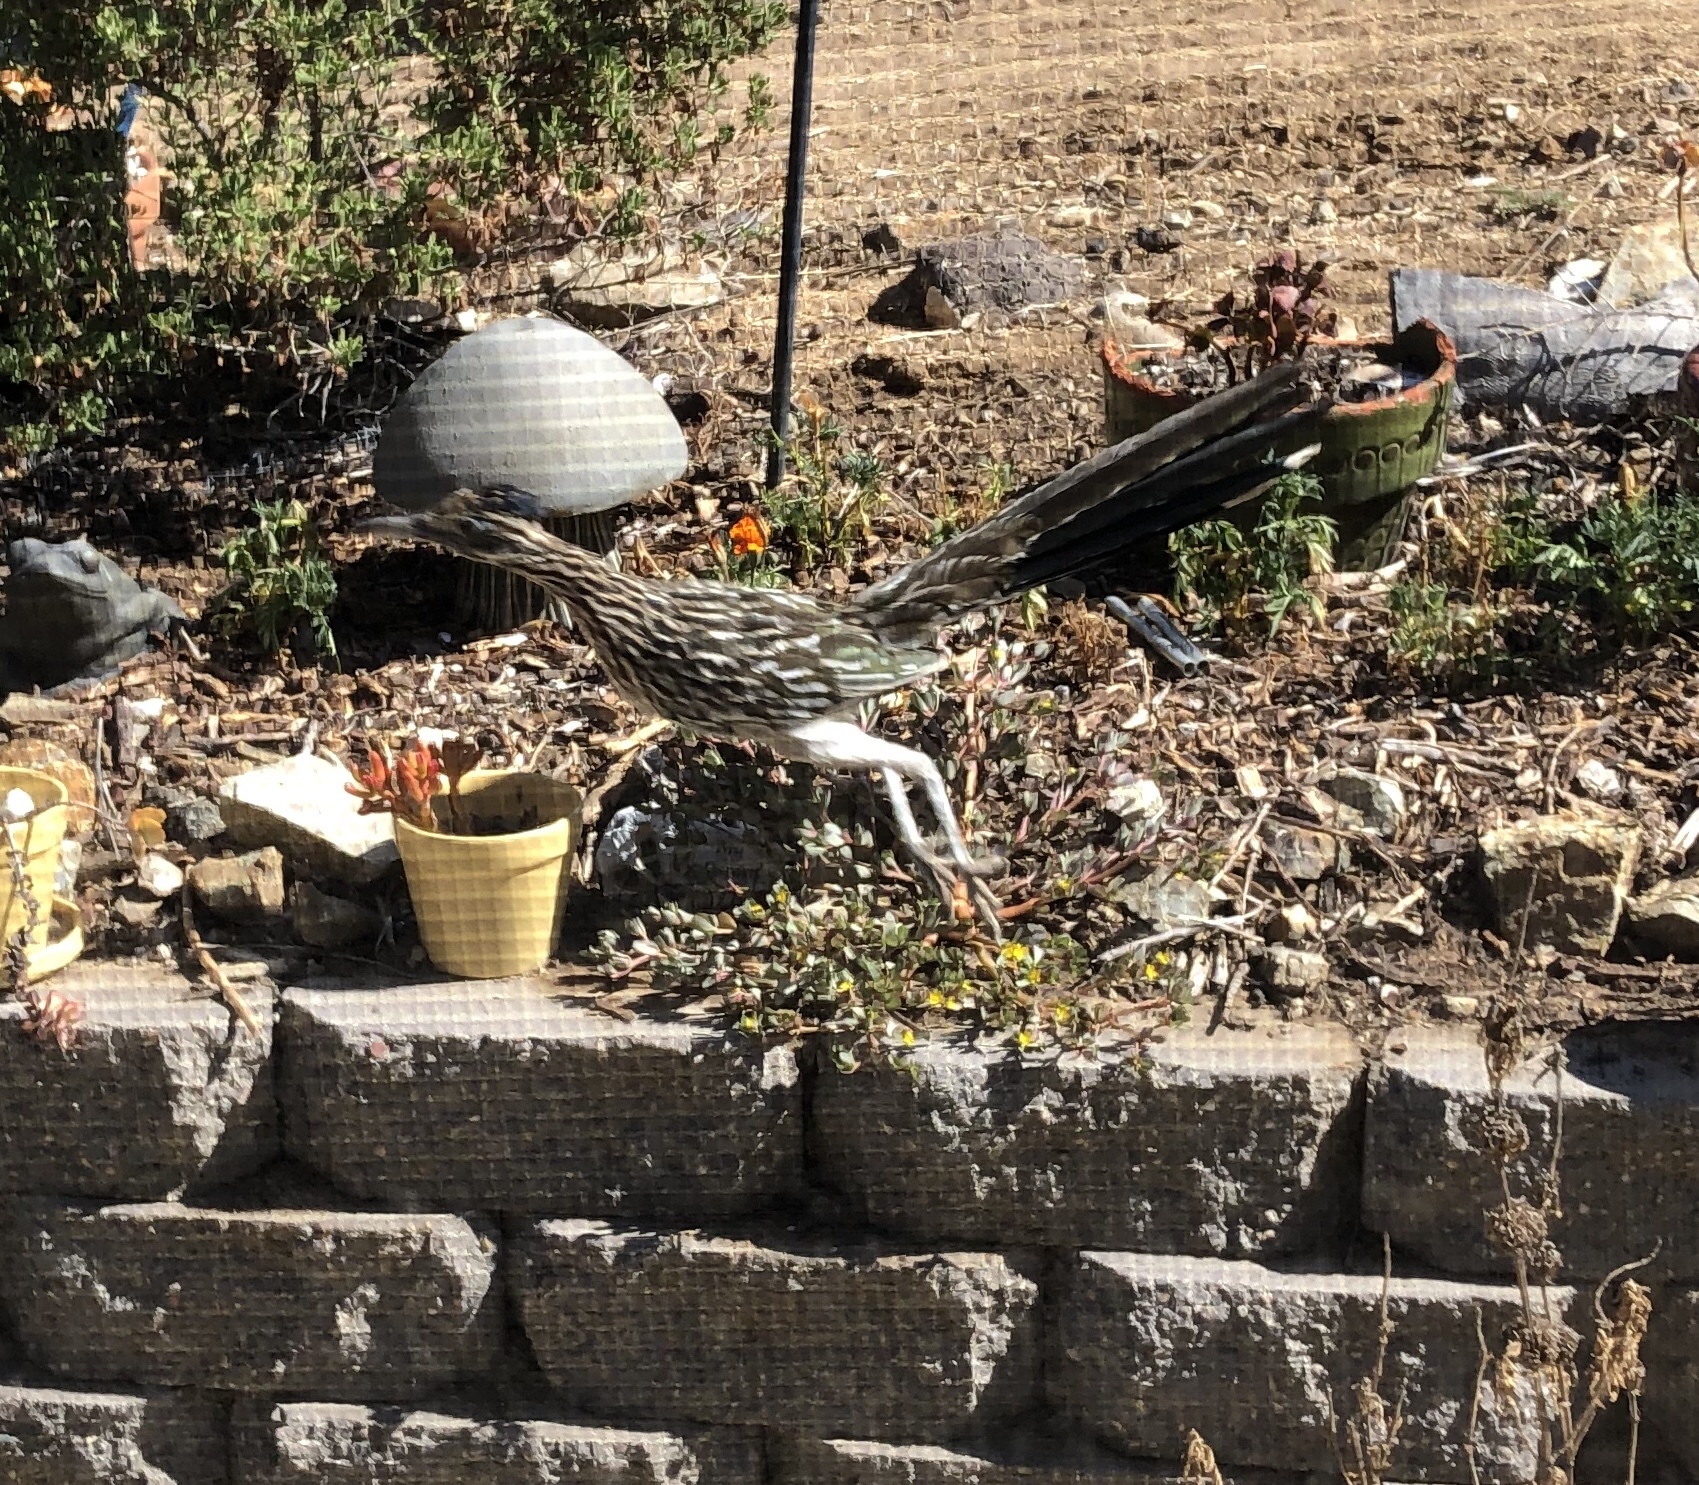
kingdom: Animalia
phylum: Chordata
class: Aves
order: Cuculiformes
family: Cuculidae
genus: Geococcyx
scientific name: Geococcyx californianus
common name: Greater roadrunner
